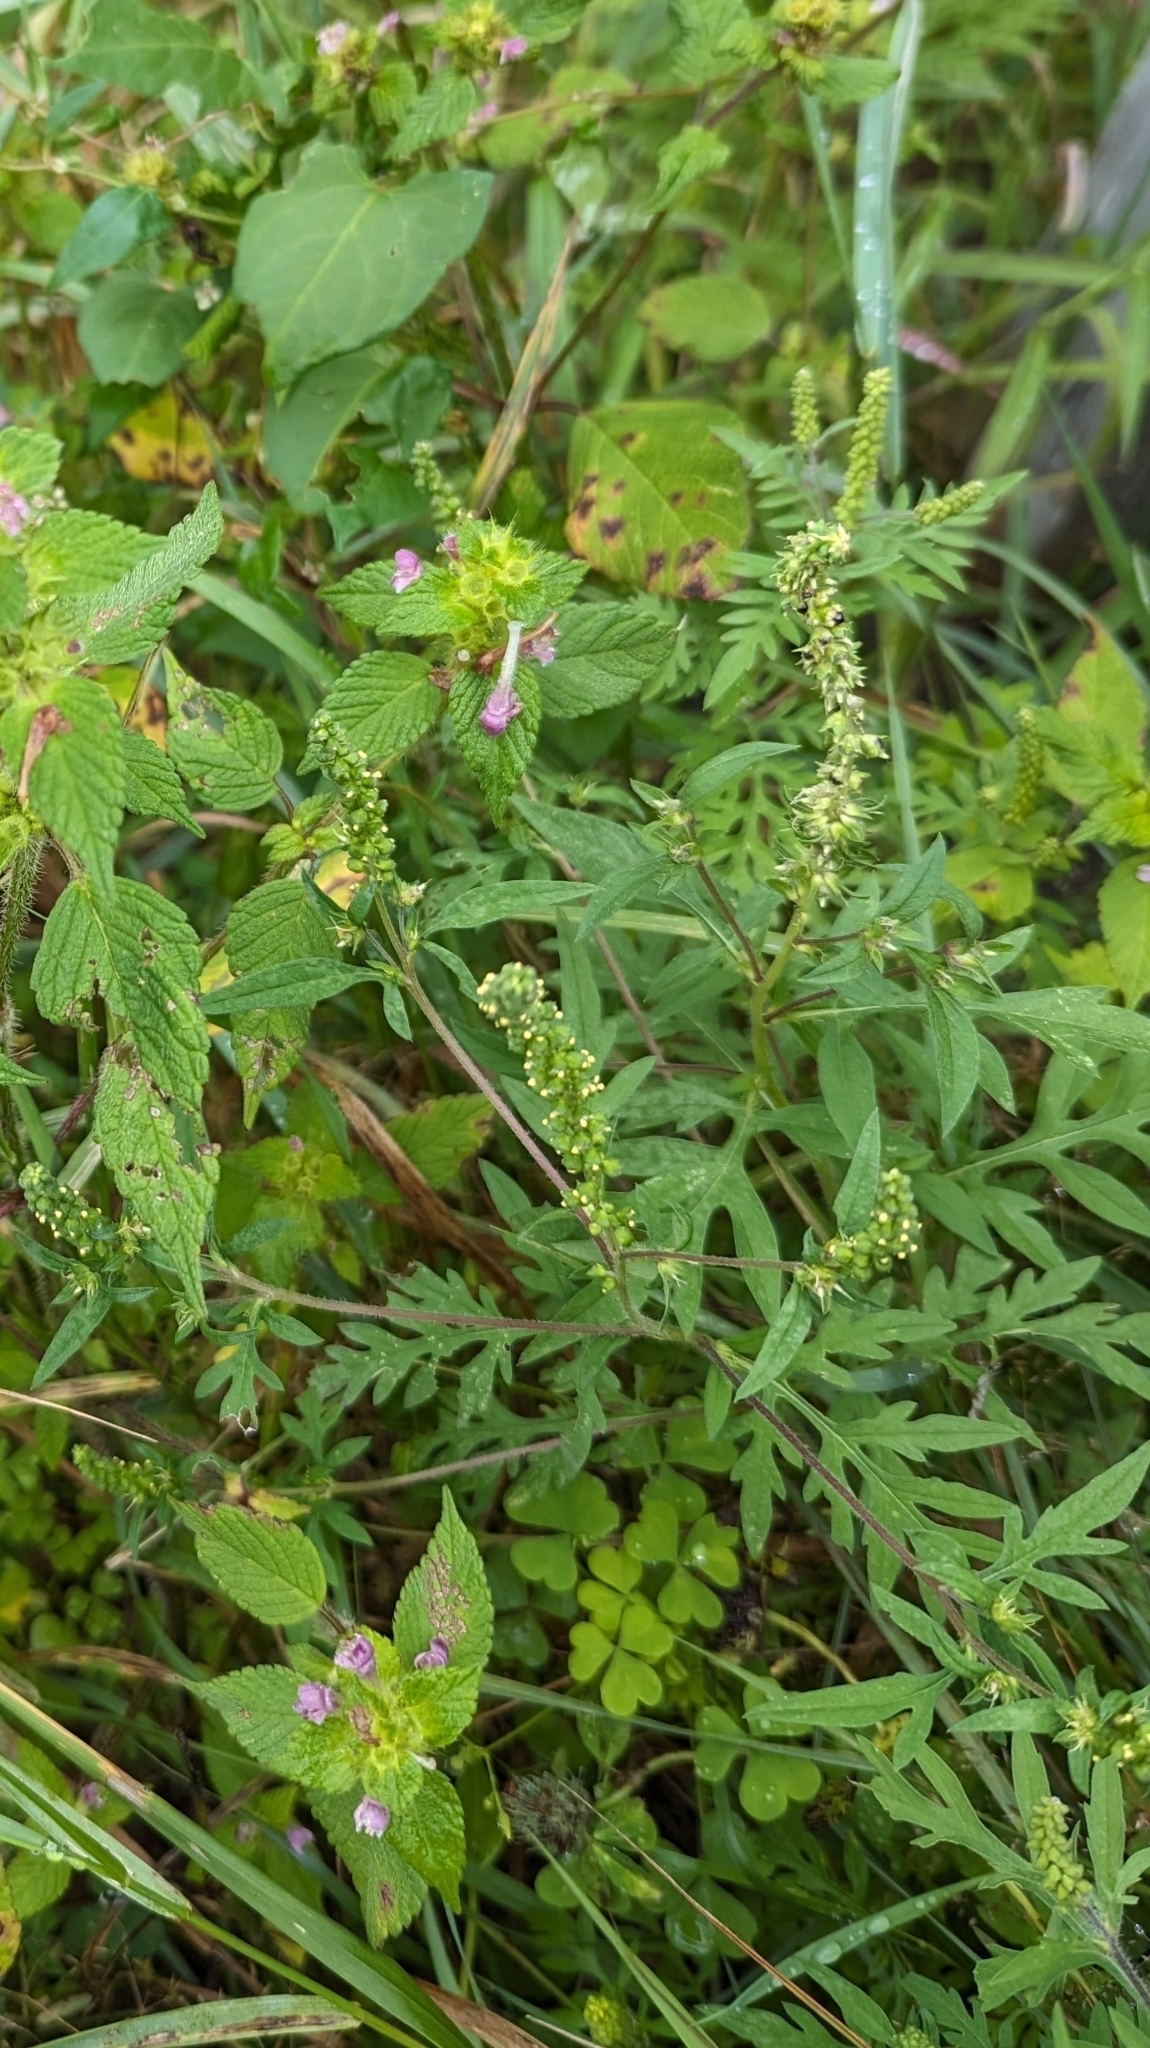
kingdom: Plantae
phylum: Tracheophyta
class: Magnoliopsida
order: Asterales
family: Asteraceae
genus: Ambrosia
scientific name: Ambrosia artemisiifolia
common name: Annual ragweed
